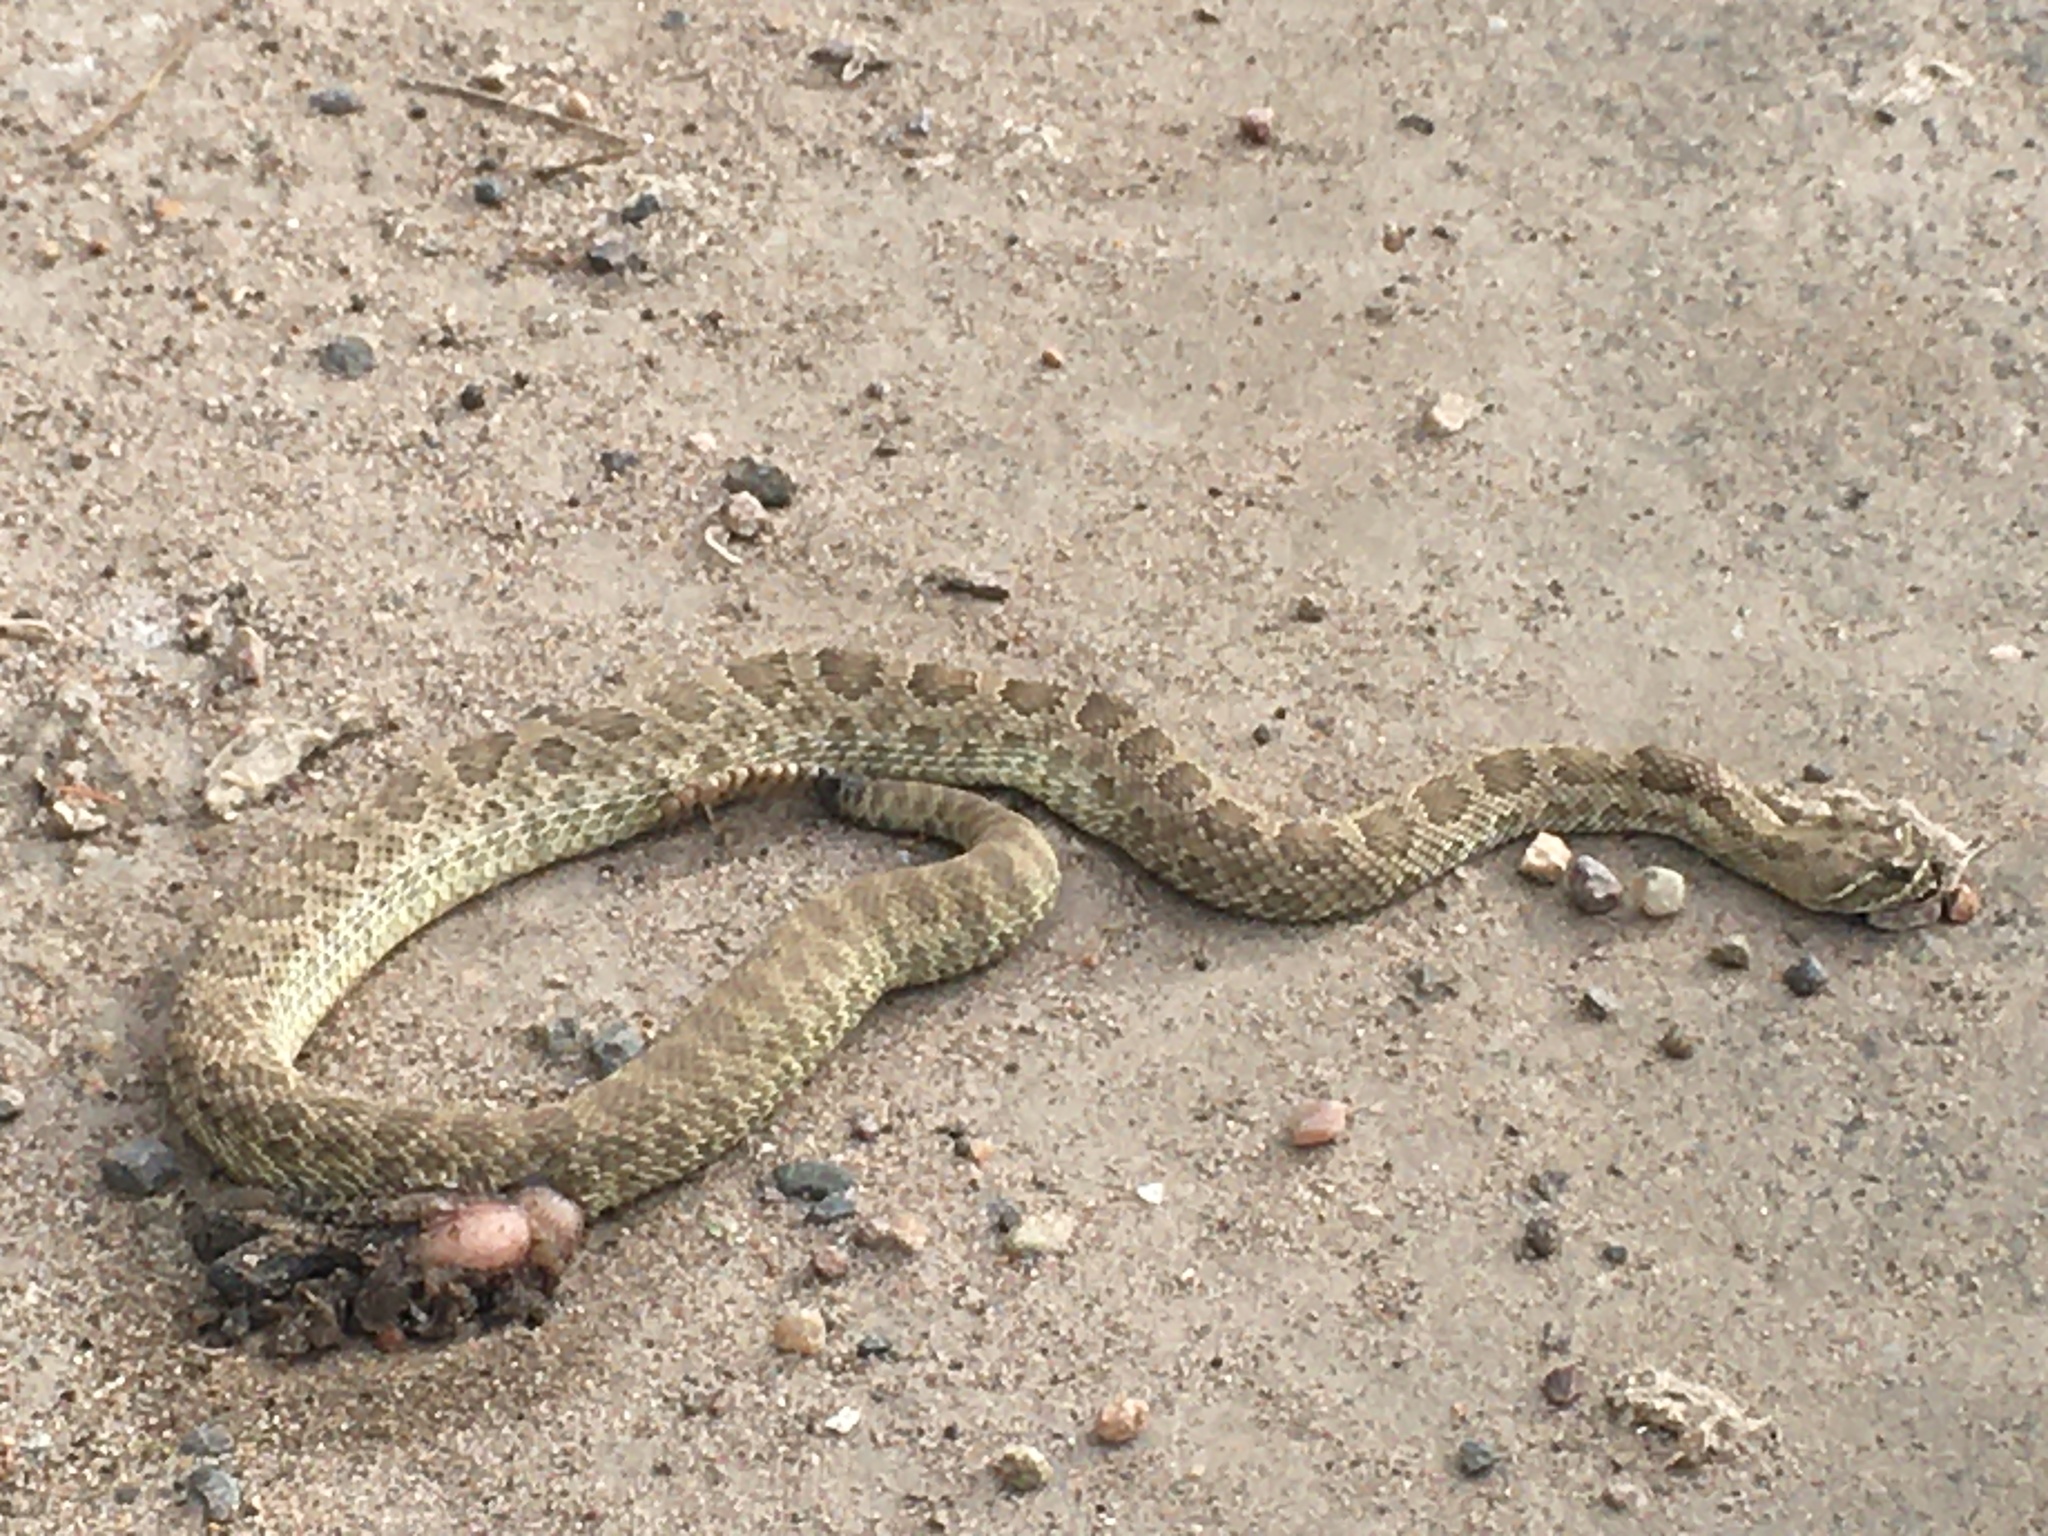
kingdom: Animalia
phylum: Chordata
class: Squamata
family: Viperidae
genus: Crotalus
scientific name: Crotalus viridis
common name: Prairie rattlesnake
